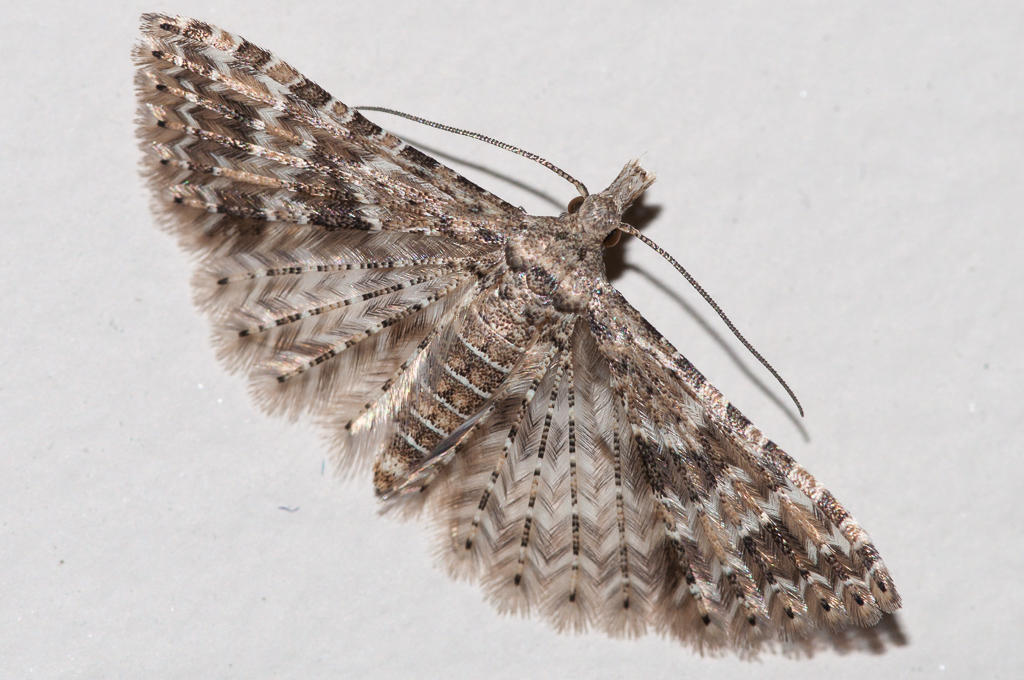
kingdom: Animalia
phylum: Arthropoda
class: Insecta
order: Lepidoptera
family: Alucitidae
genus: Alucita
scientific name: Alucita spicifera
